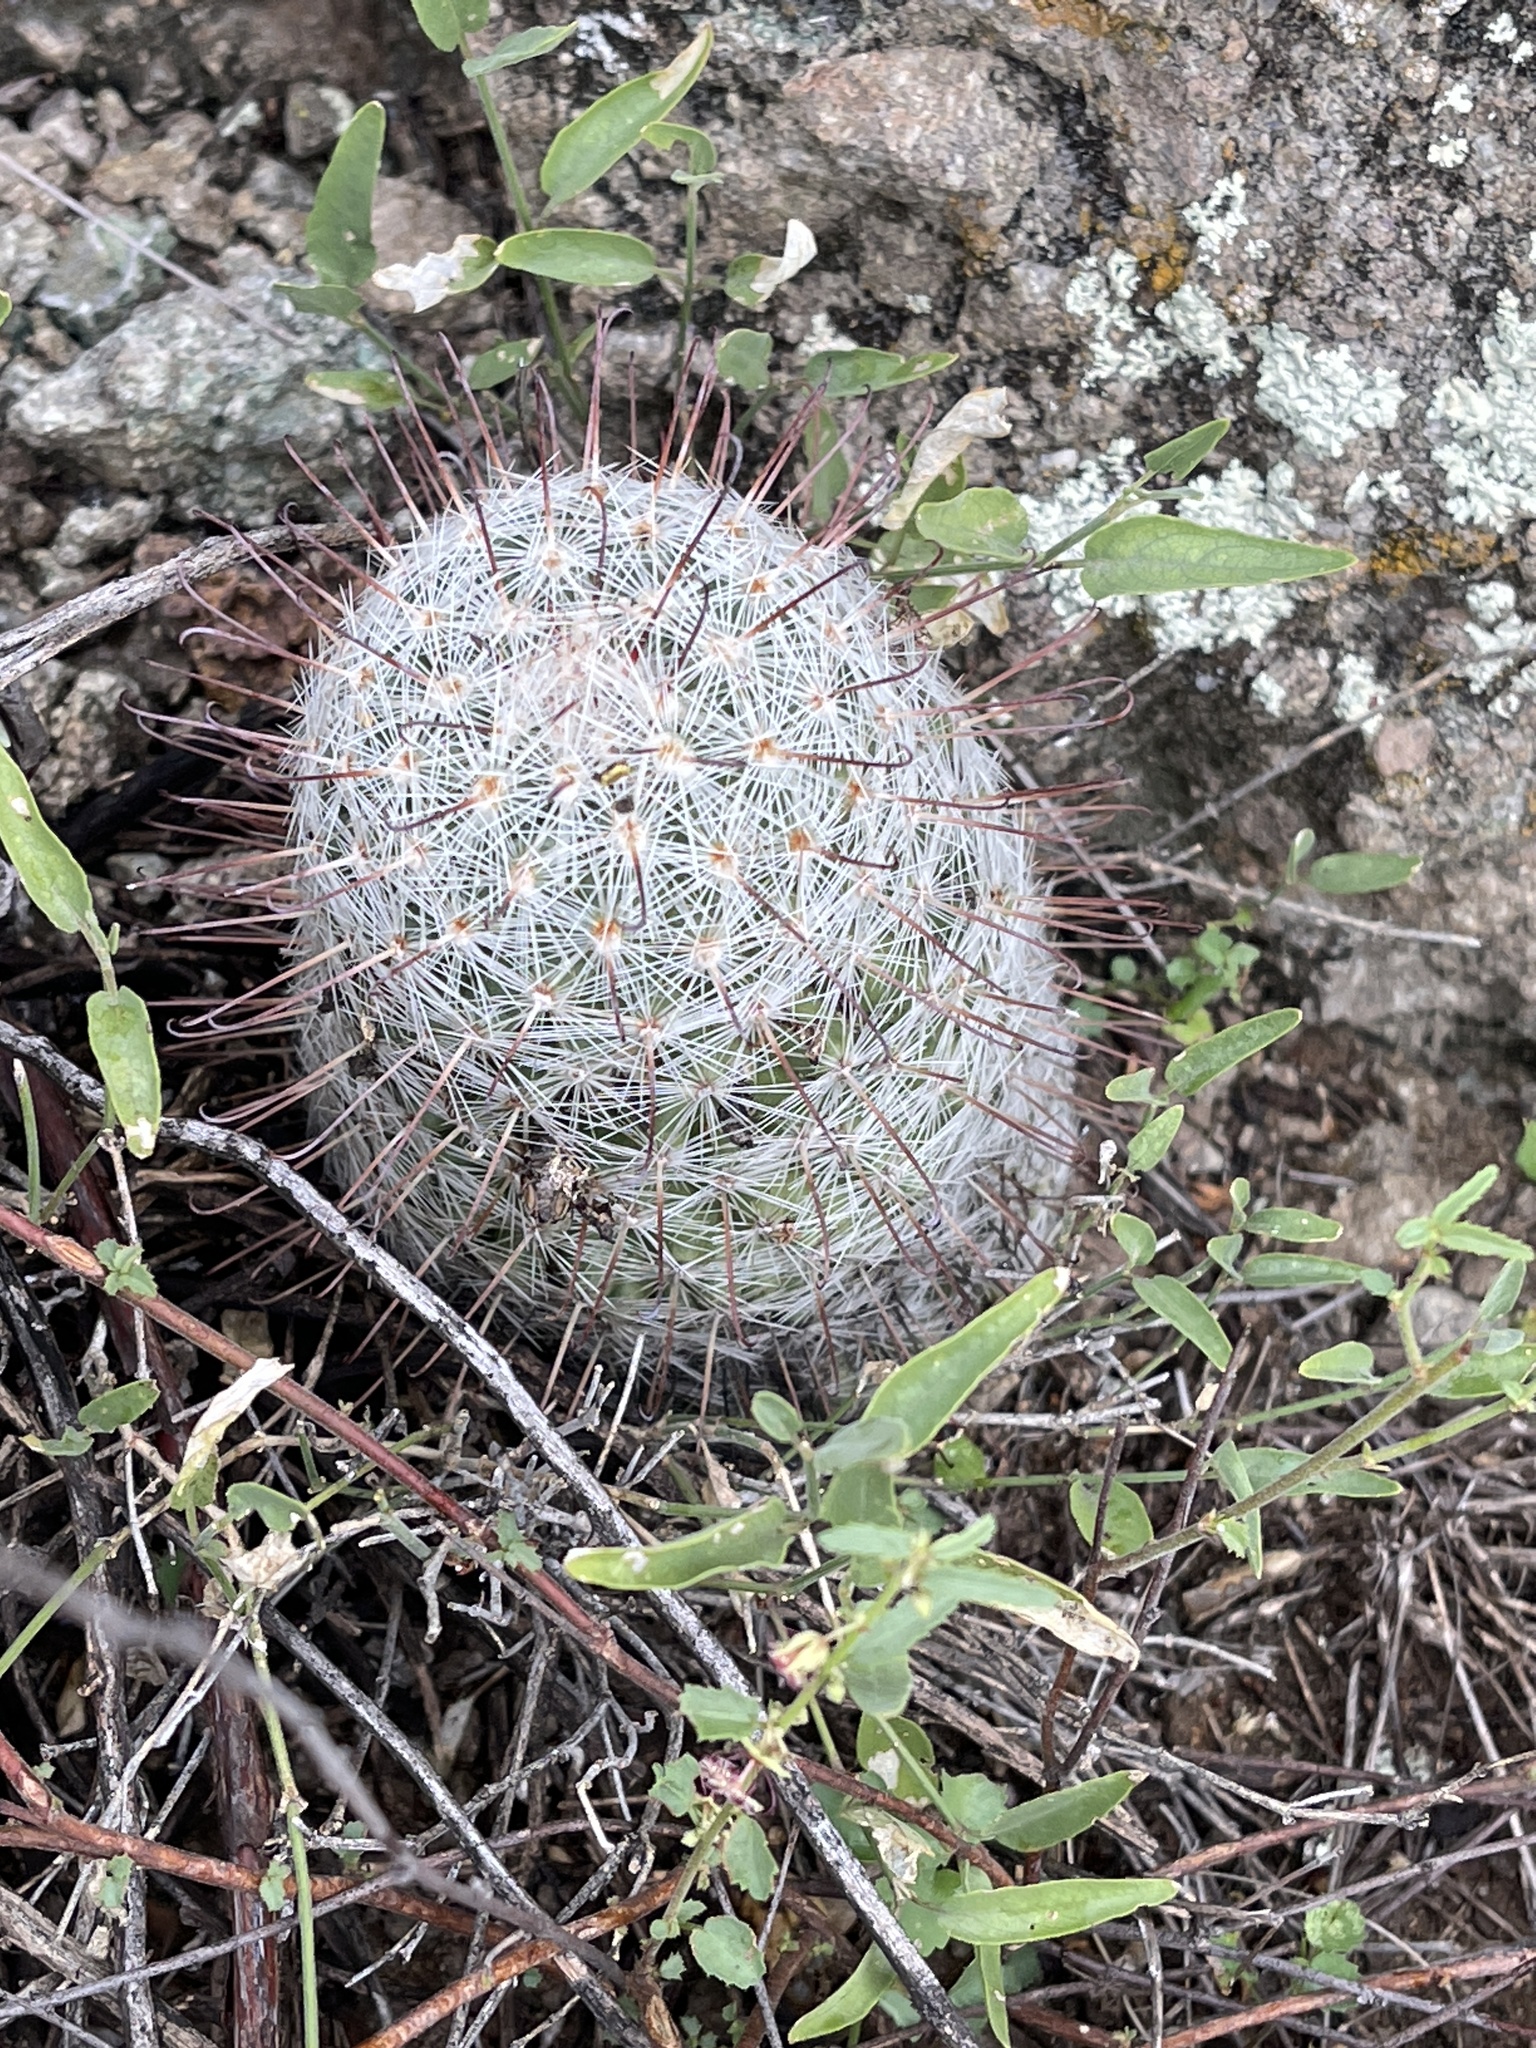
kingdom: Plantae
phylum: Tracheophyta
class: Magnoliopsida
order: Caryophyllales
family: Cactaceae
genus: Cochemiea
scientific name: Cochemiea grahamii
